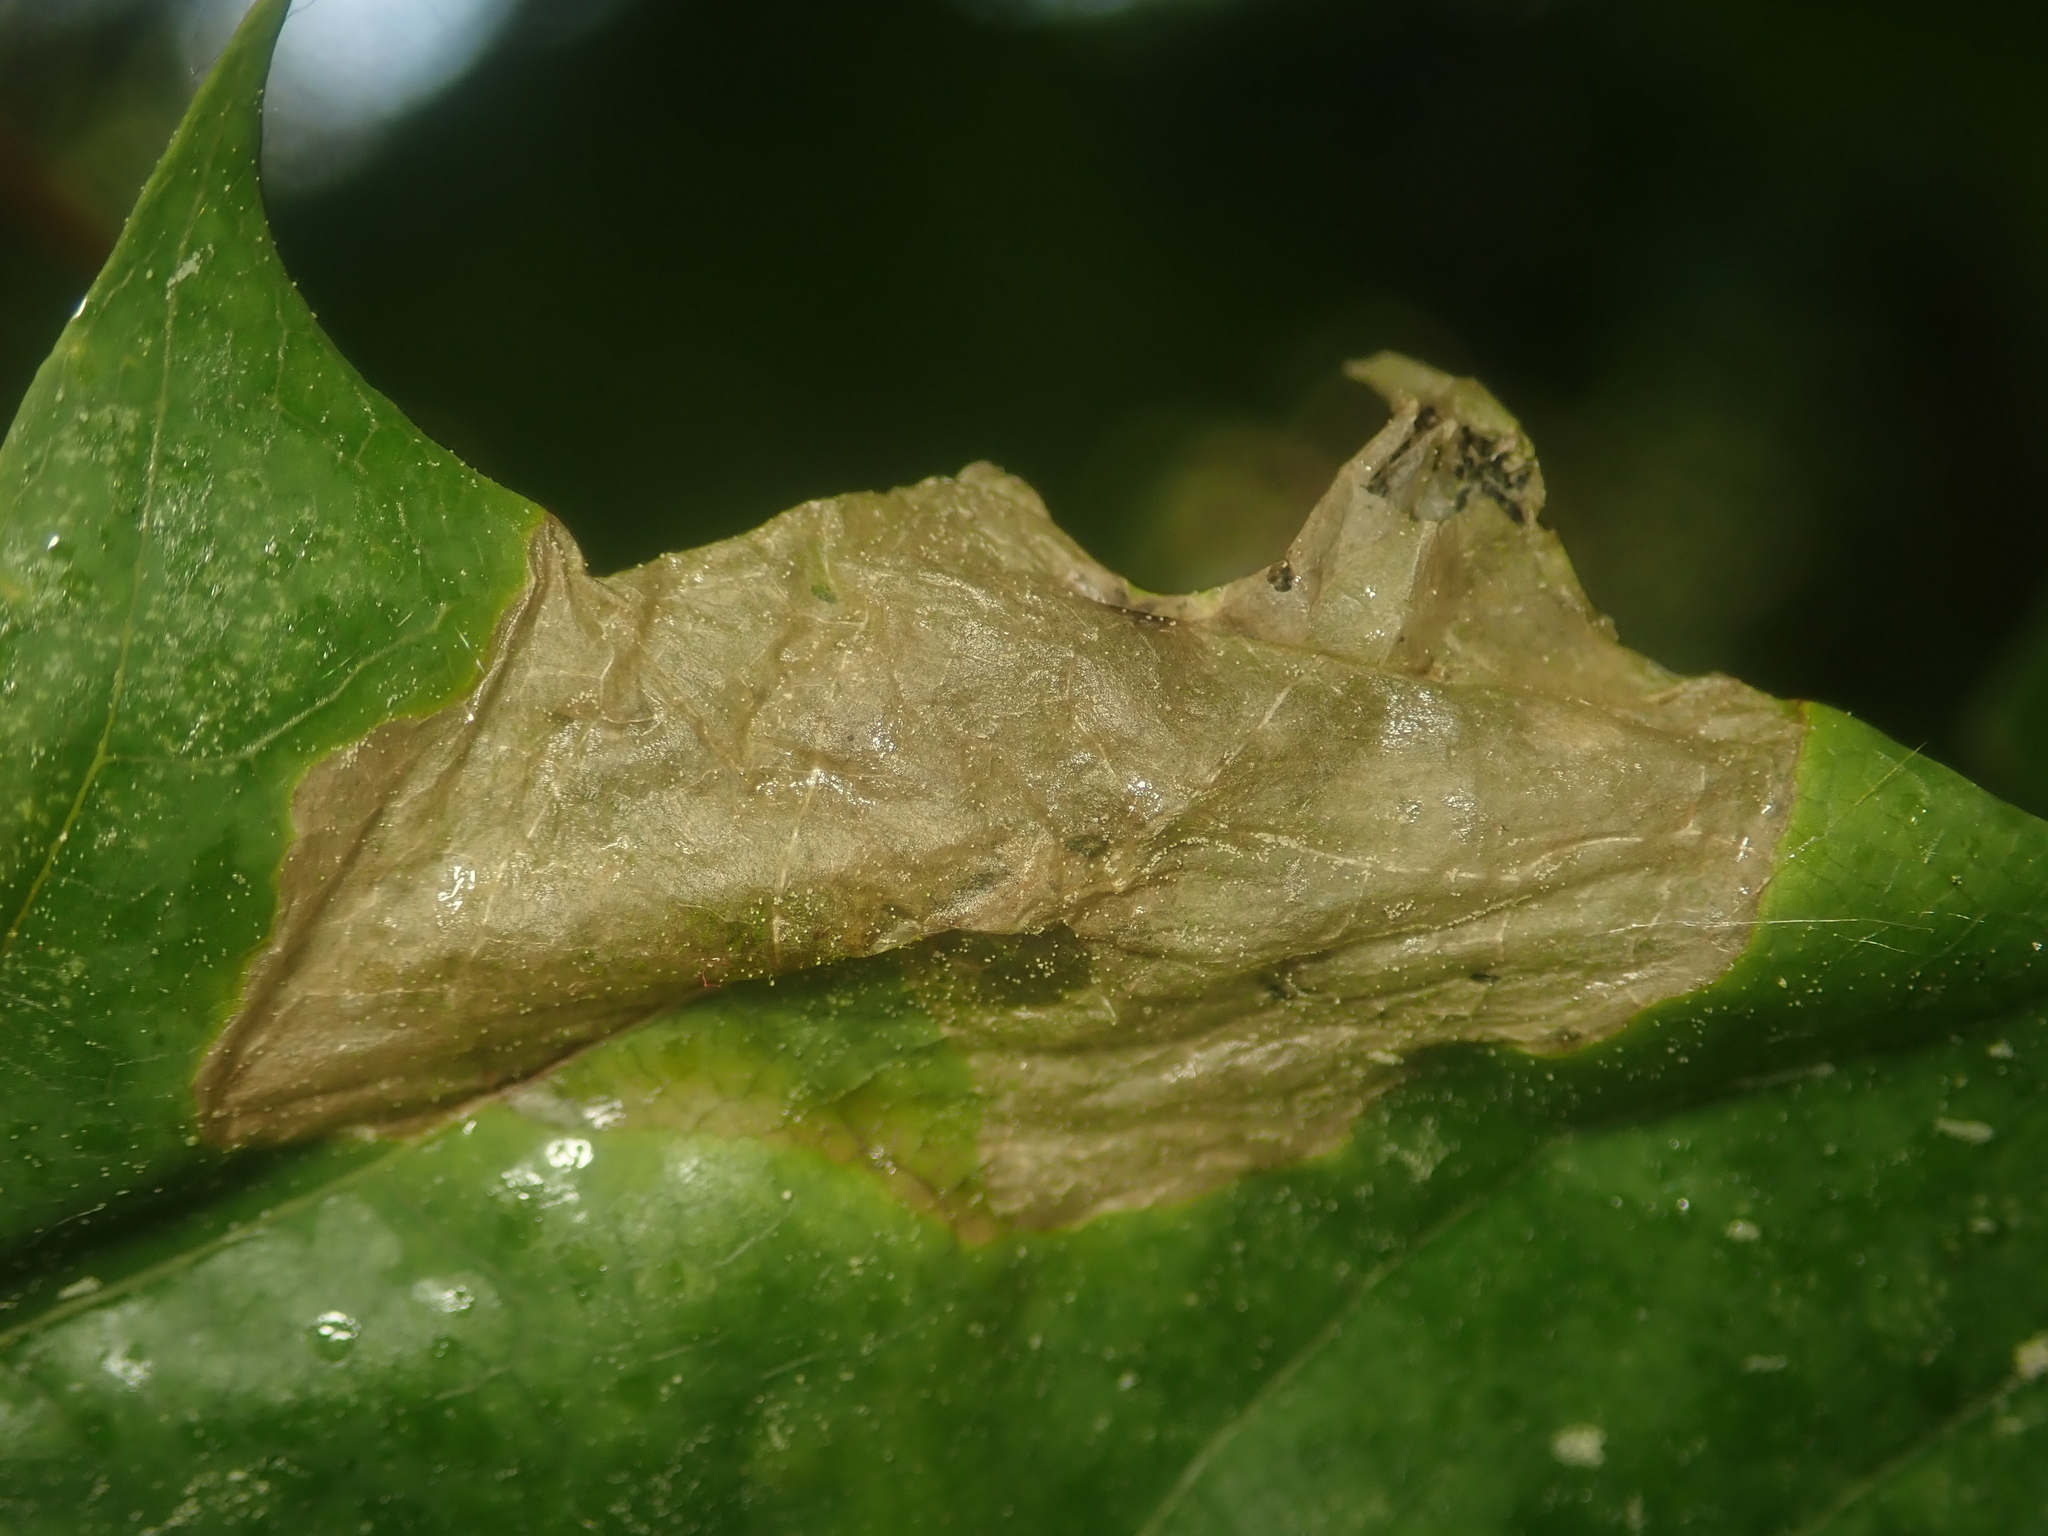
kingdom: Animalia
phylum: Arthropoda
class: Insecta
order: Hymenoptera
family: Tenthredinidae
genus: Hinatara
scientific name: Hinatara recta
